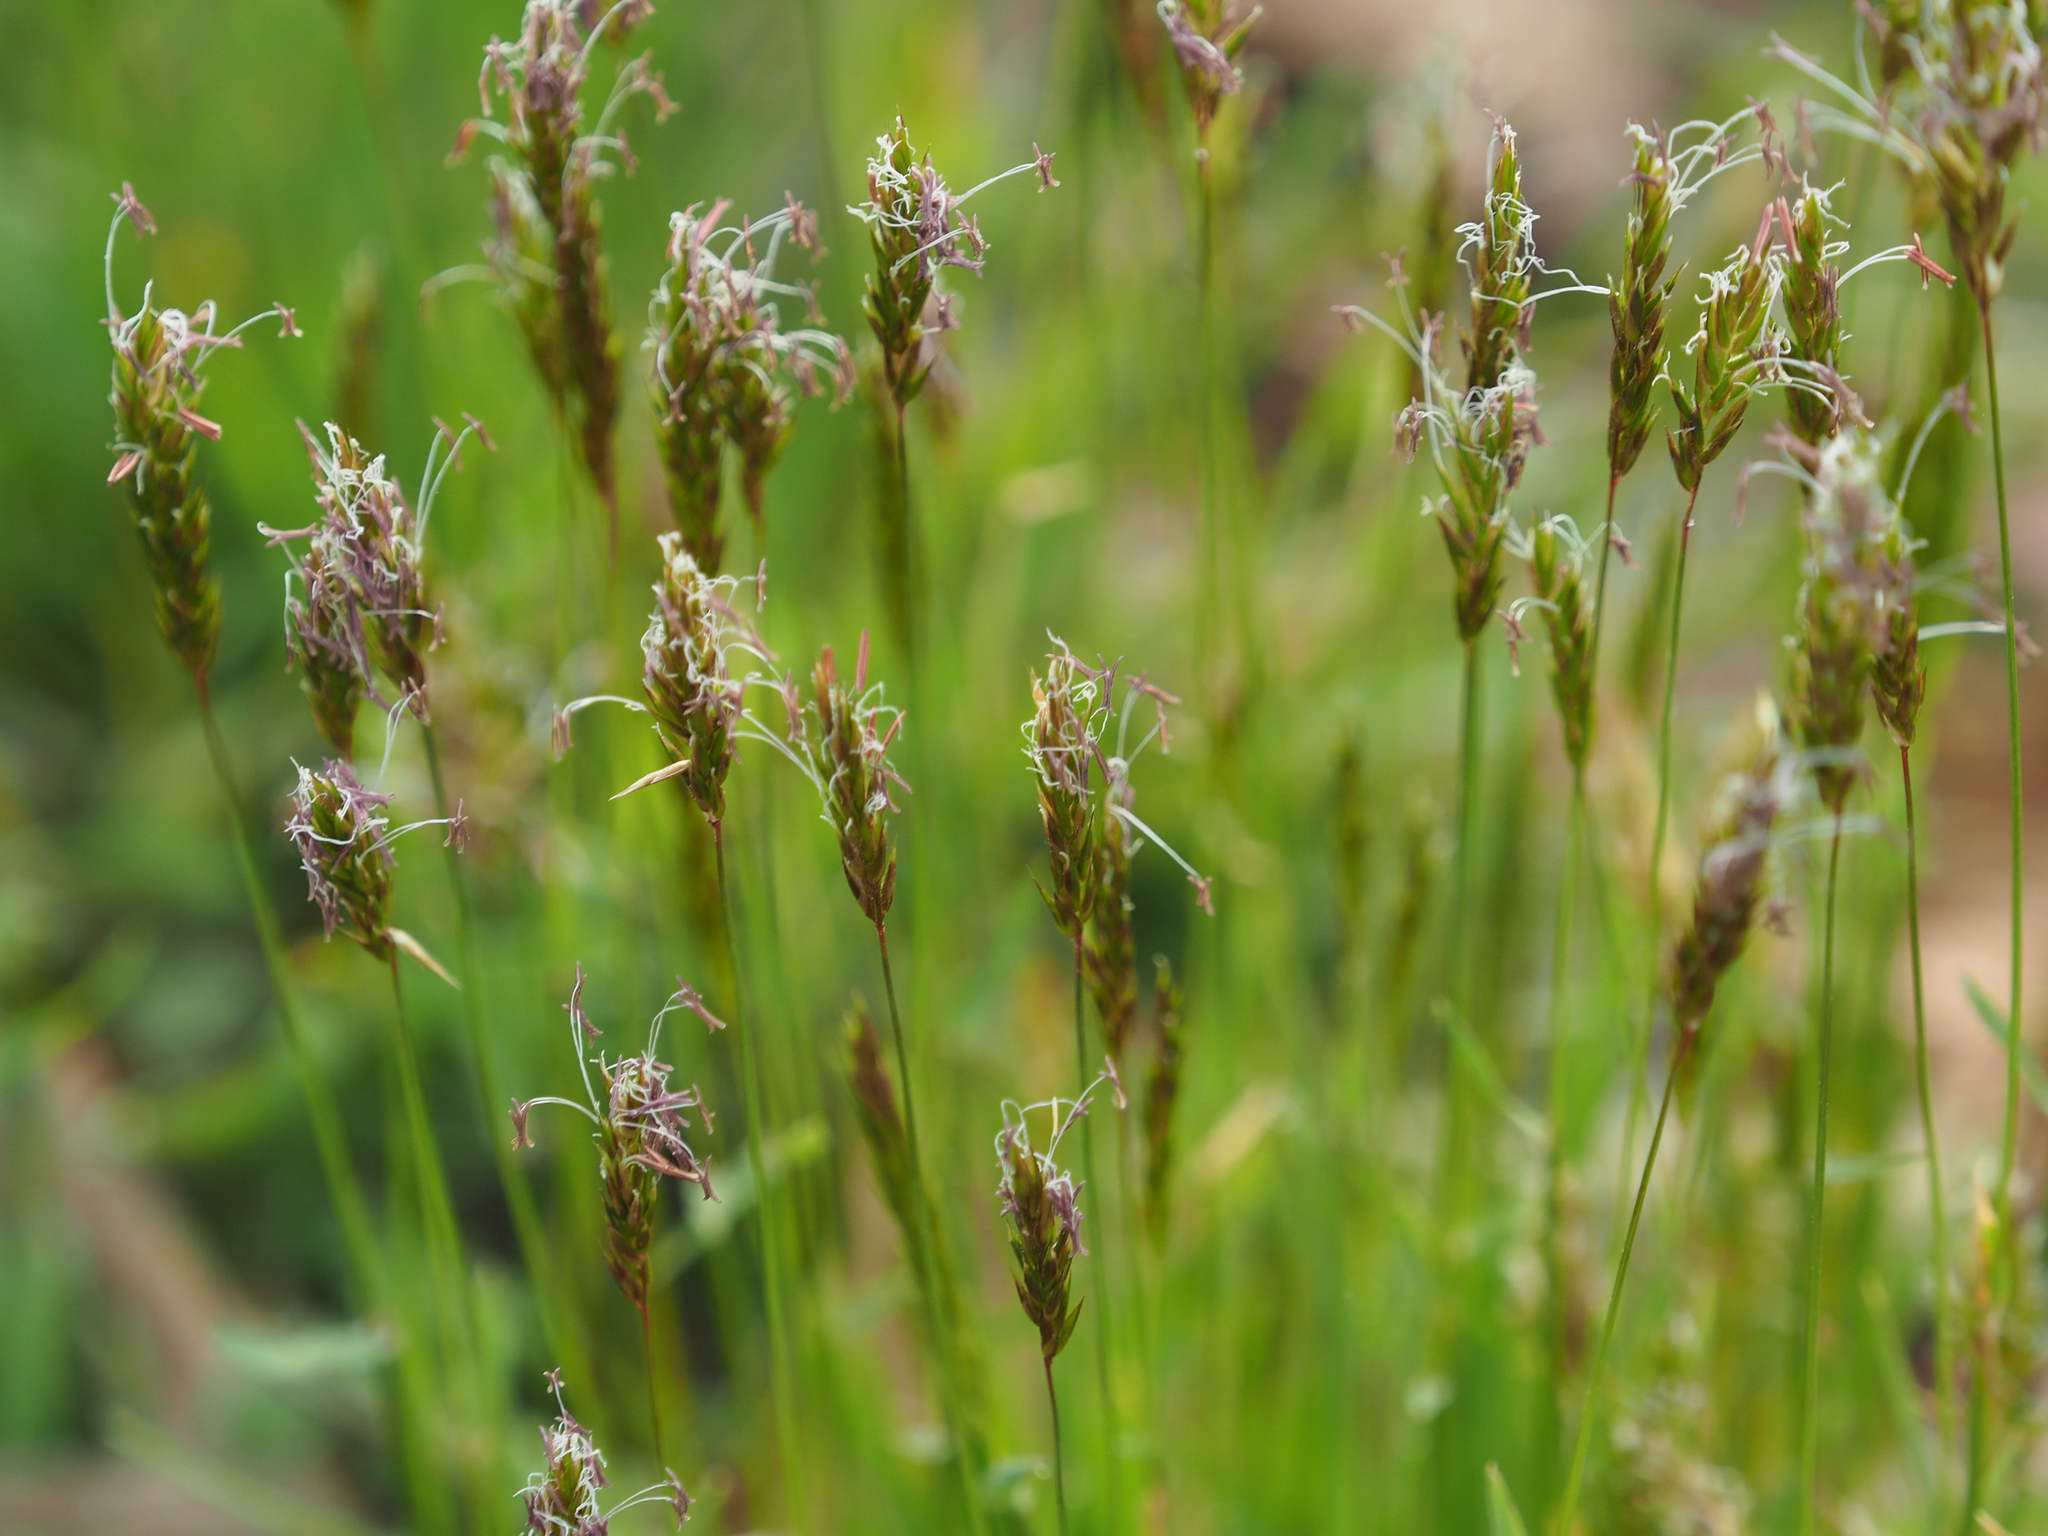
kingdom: Plantae
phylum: Tracheophyta
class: Liliopsida
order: Poales
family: Poaceae
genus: Anthoxanthum
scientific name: Anthoxanthum odoratum
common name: Sweet vernalgrass
